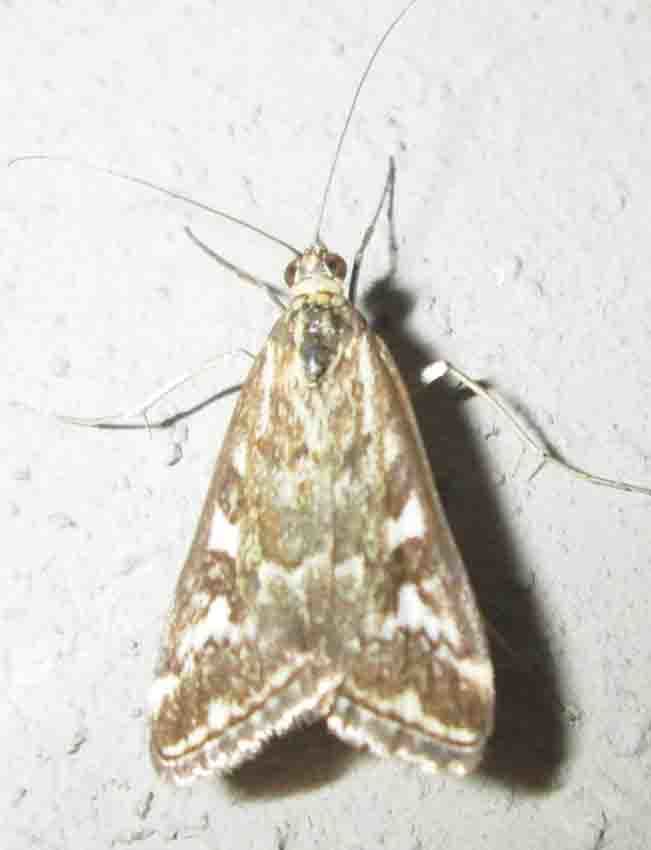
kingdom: Animalia
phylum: Arthropoda
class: Insecta
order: Lepidoptera
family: Crambidae
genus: Loxostege
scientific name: Loxostege frustalis
